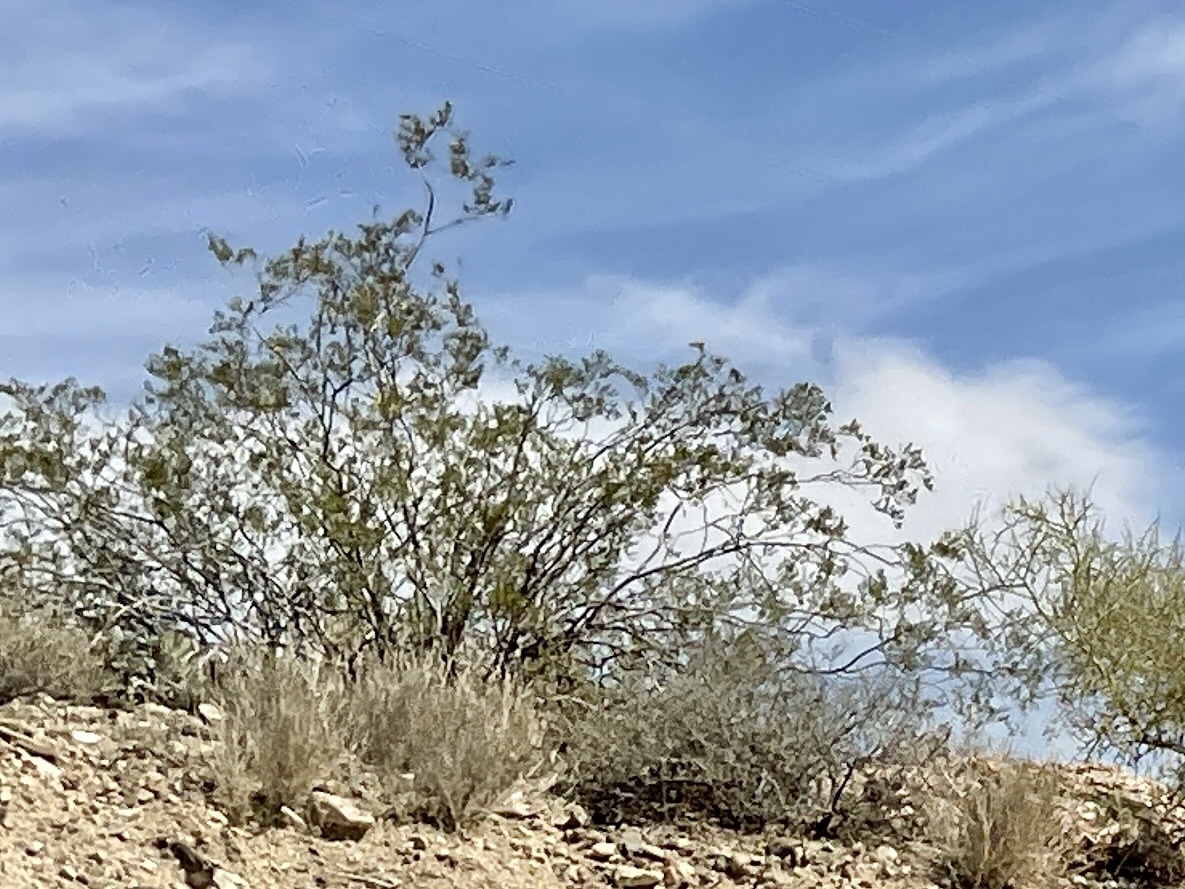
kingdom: Plantae
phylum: Tracheophyta
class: Magnoliopsida
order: Zygophyllales
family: Zygophyllaceae
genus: Larrea
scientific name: Larrea tridentata
